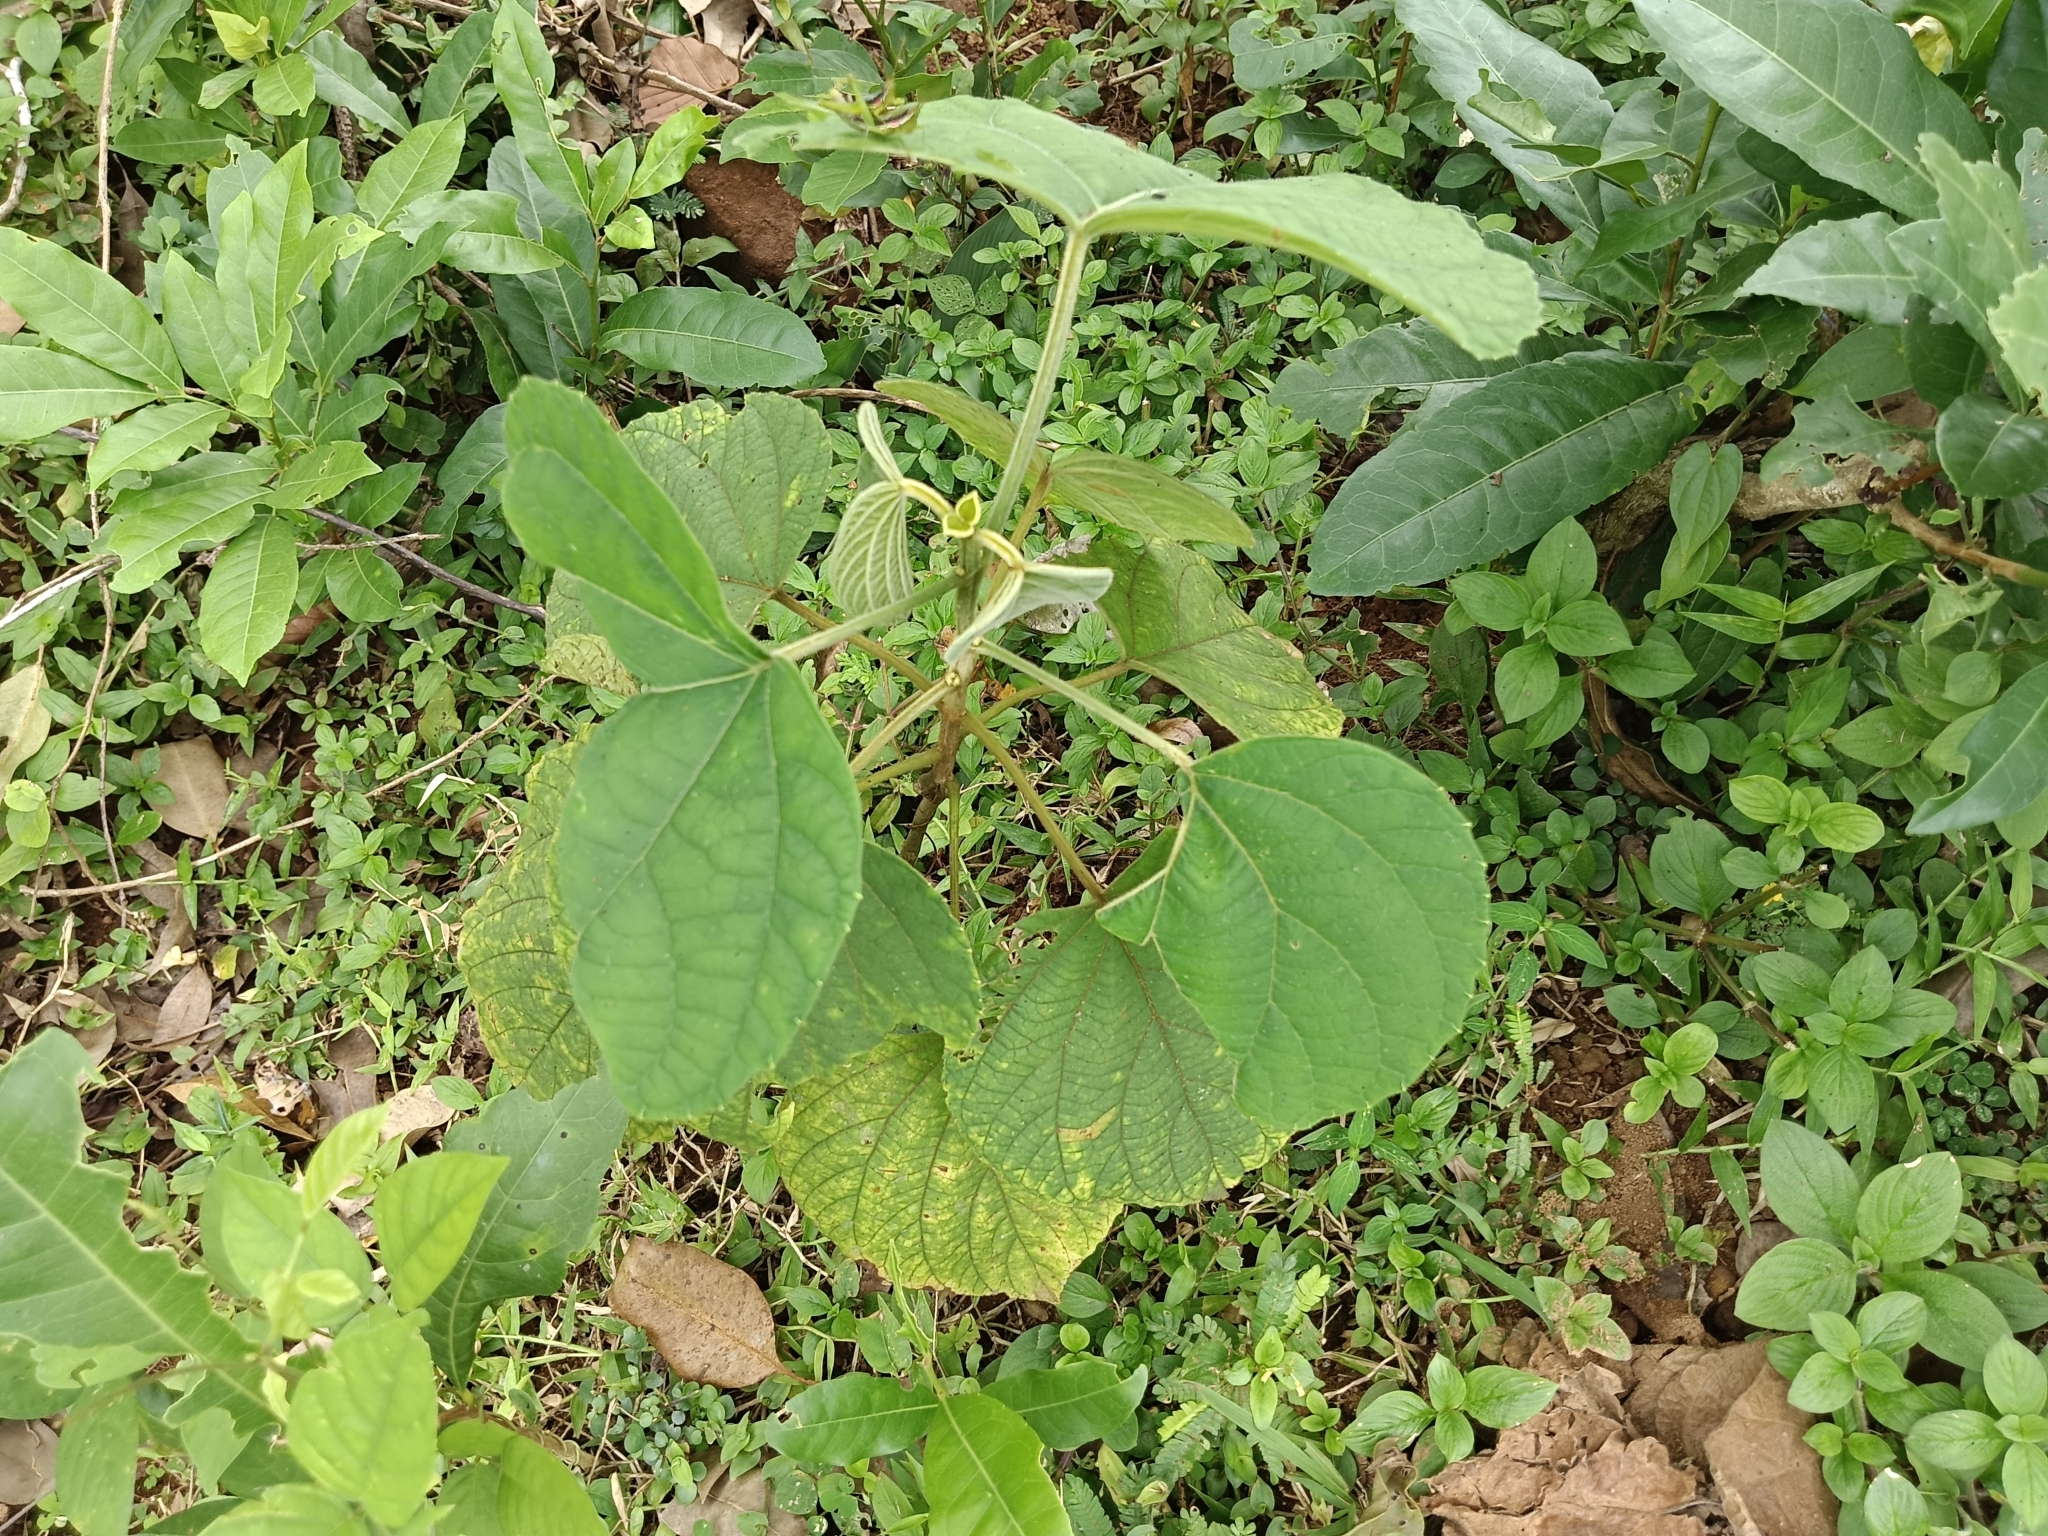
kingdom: Plantae
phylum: Tracheophyta
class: Magnoliopsida
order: Lamiales
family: Lamiaceae
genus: Clerodendrum
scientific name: Clerodendrum infortunatum
